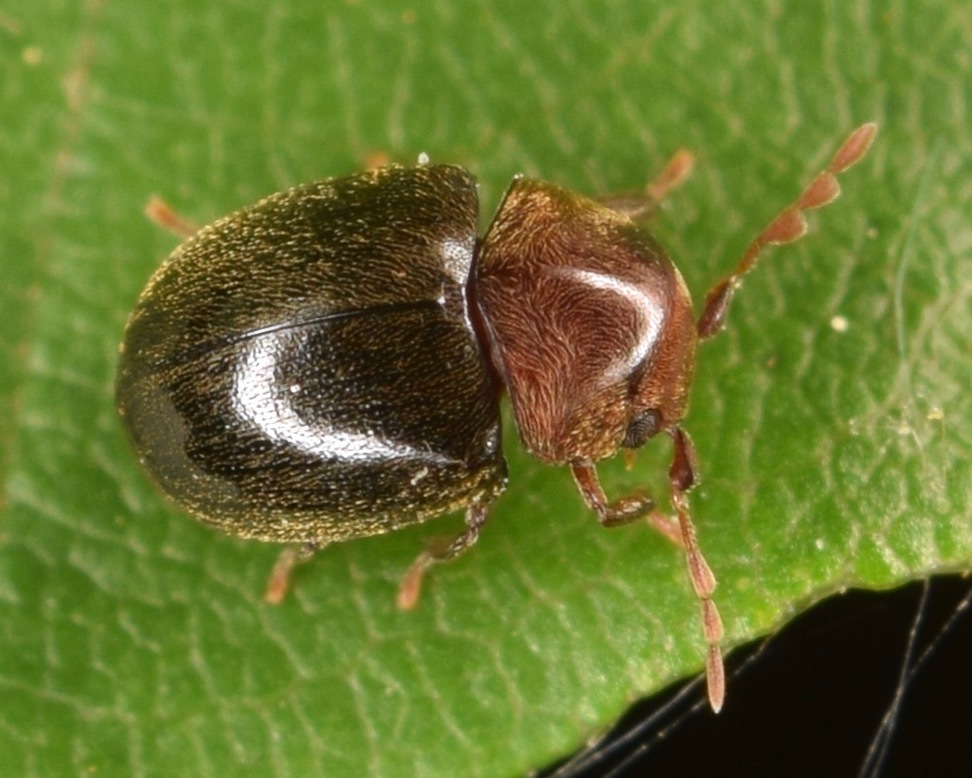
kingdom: Animalia
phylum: Arthropoda
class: Insecta
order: Coleoptera
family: Anobiidae
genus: Tricorynus
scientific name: Tricorynus dichrous
